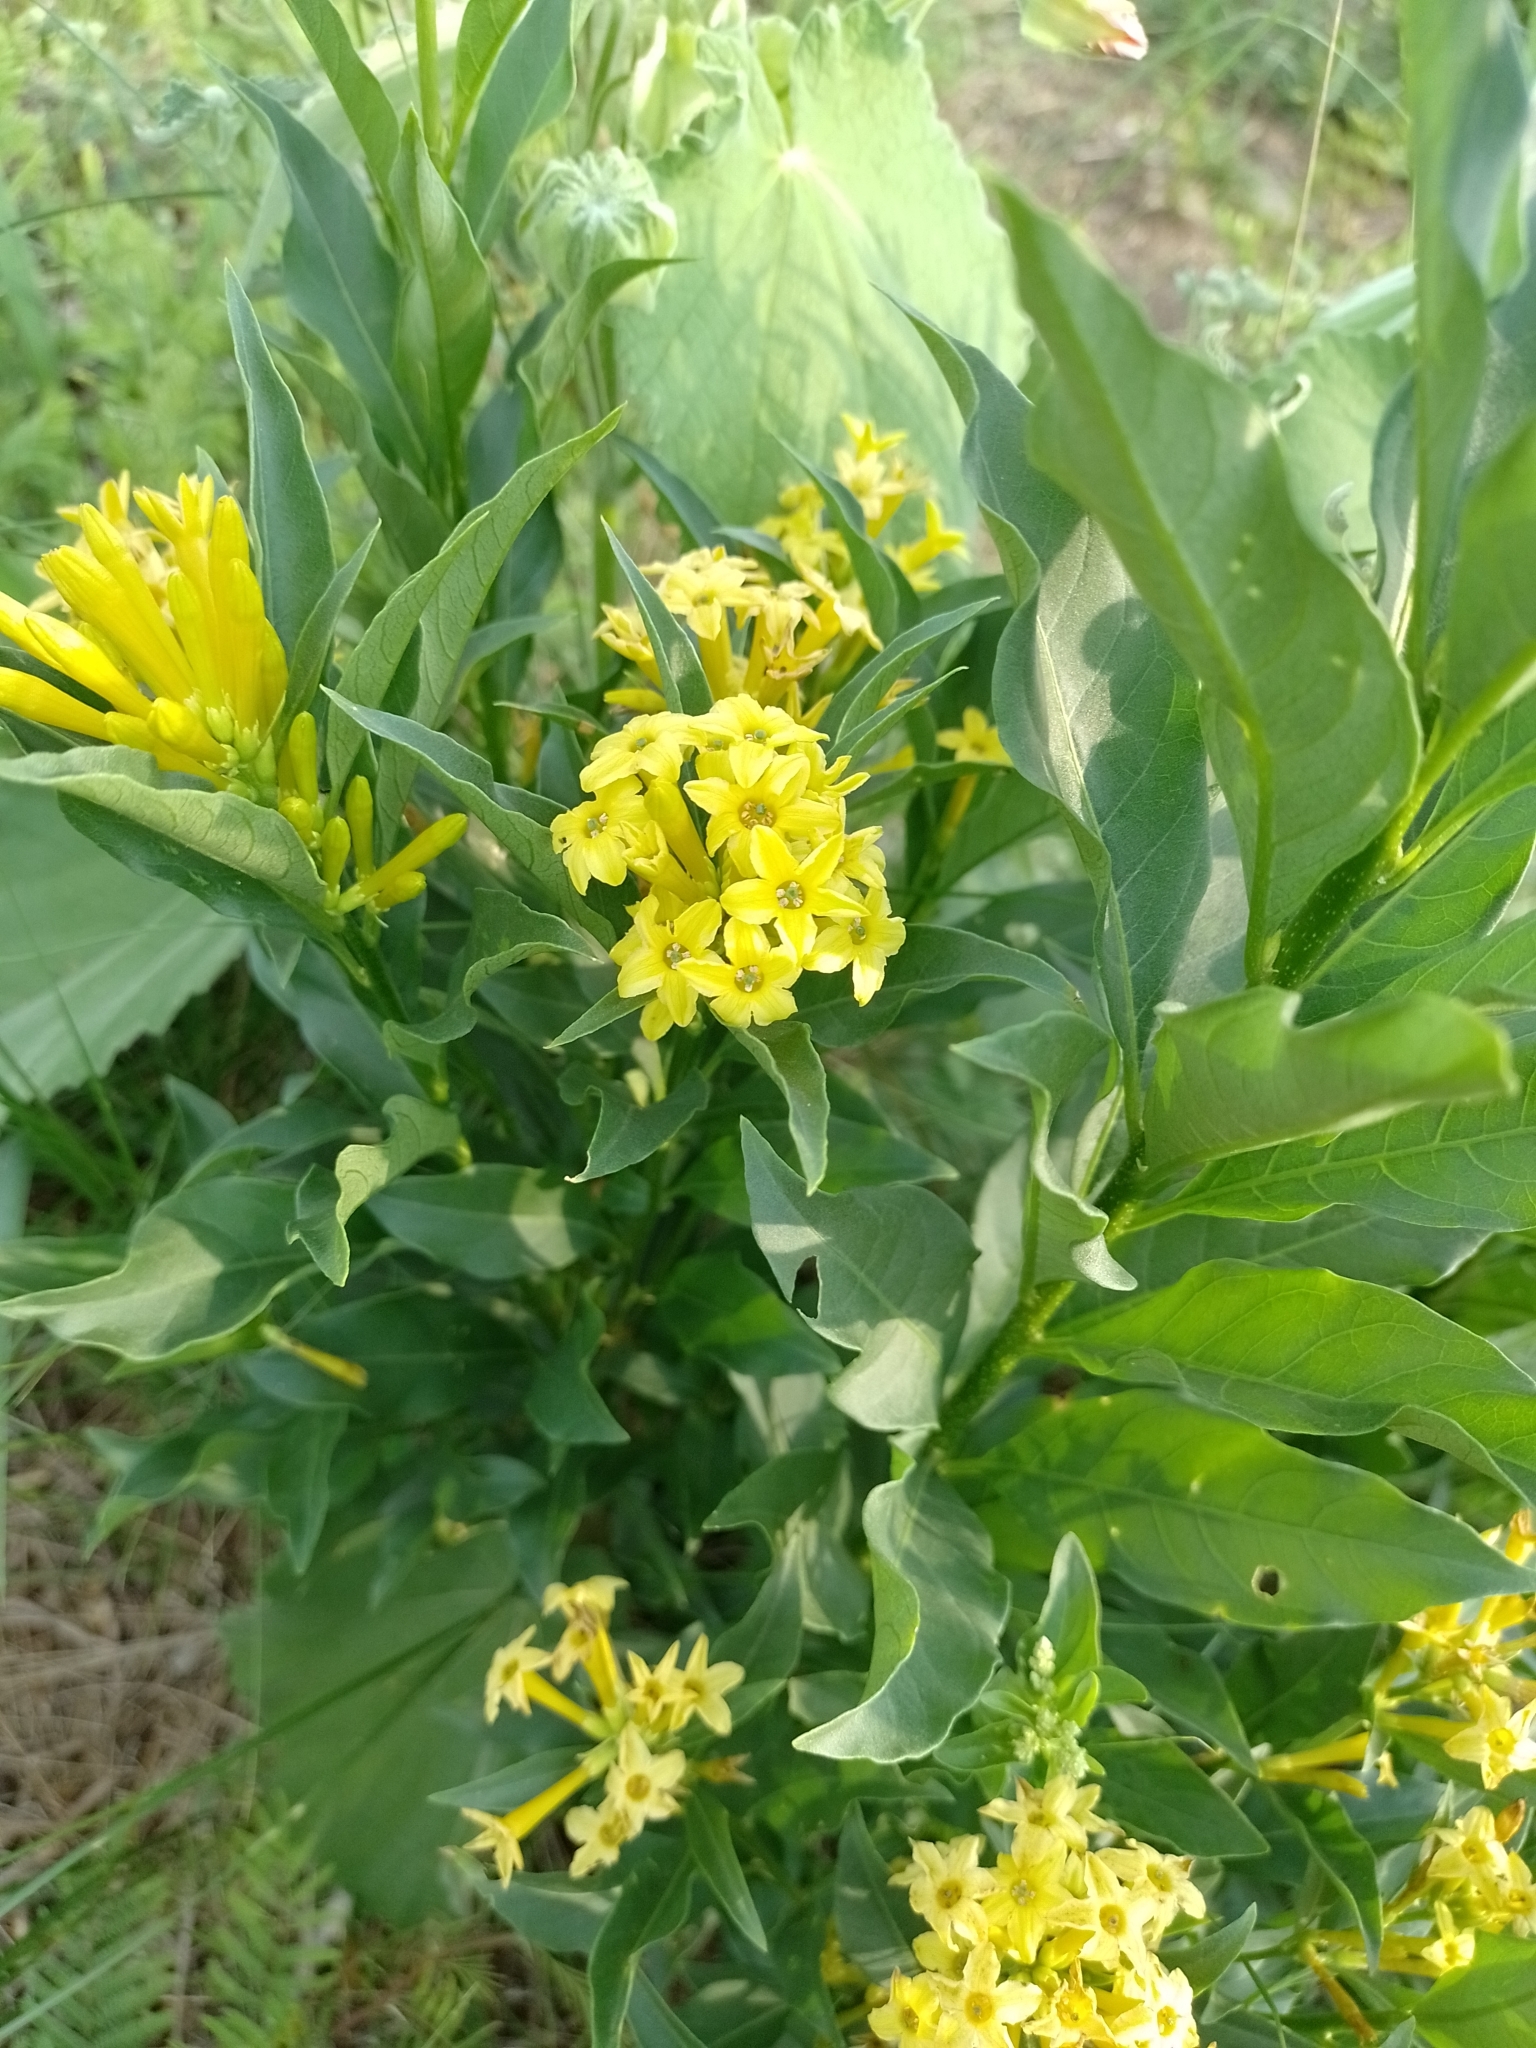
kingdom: Plantae
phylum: Tracheophyta
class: Magnoliopsida
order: Solanales
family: Solanaceae
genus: Cestrum
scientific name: Cestrum parqui
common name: Chilean cestrum
